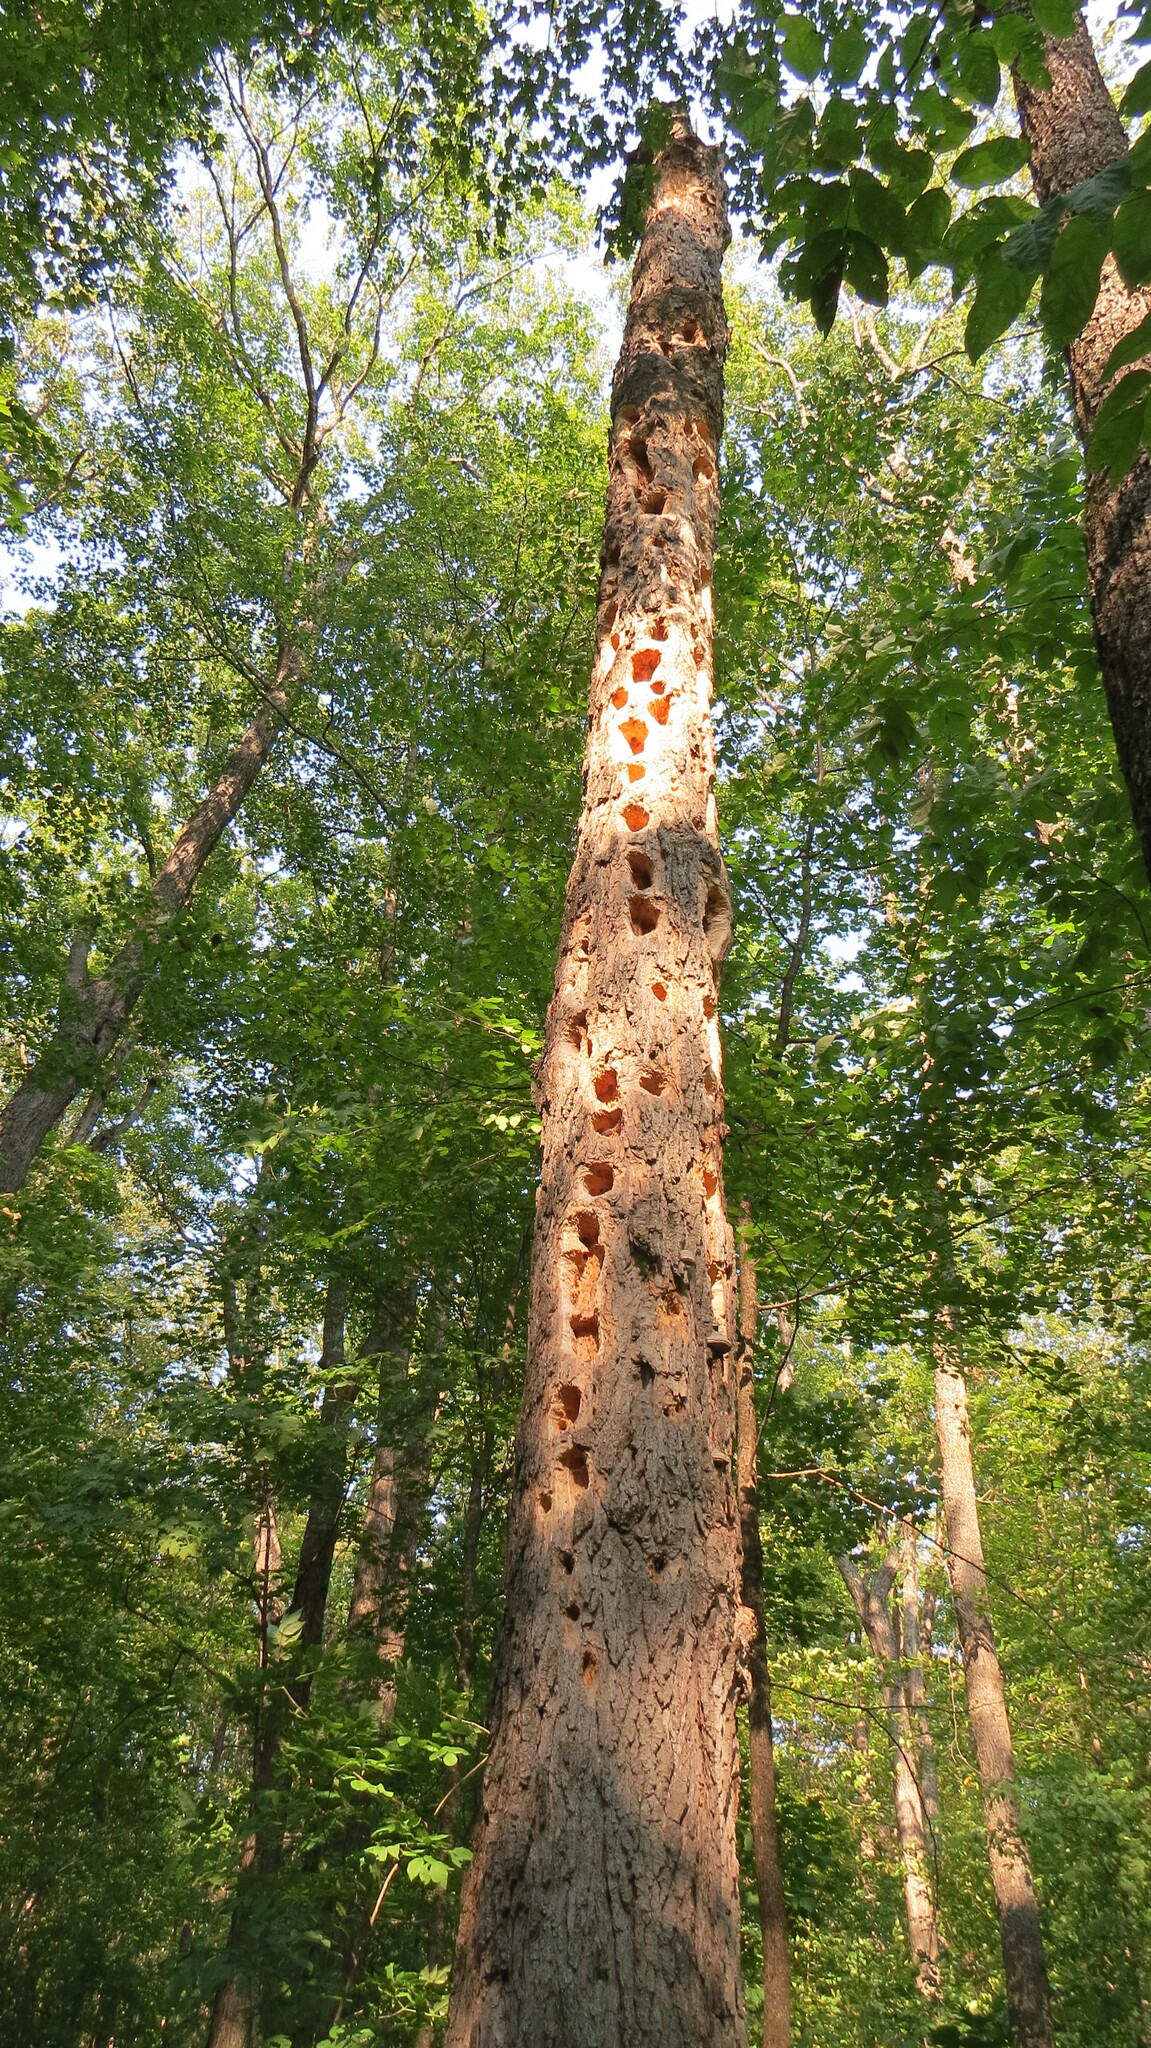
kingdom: Animalia
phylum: Chordata
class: Aves
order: Piciformes
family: Picidae
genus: Dryocopus
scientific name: Dryocopus pileatus
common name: Pileated woodpecker
